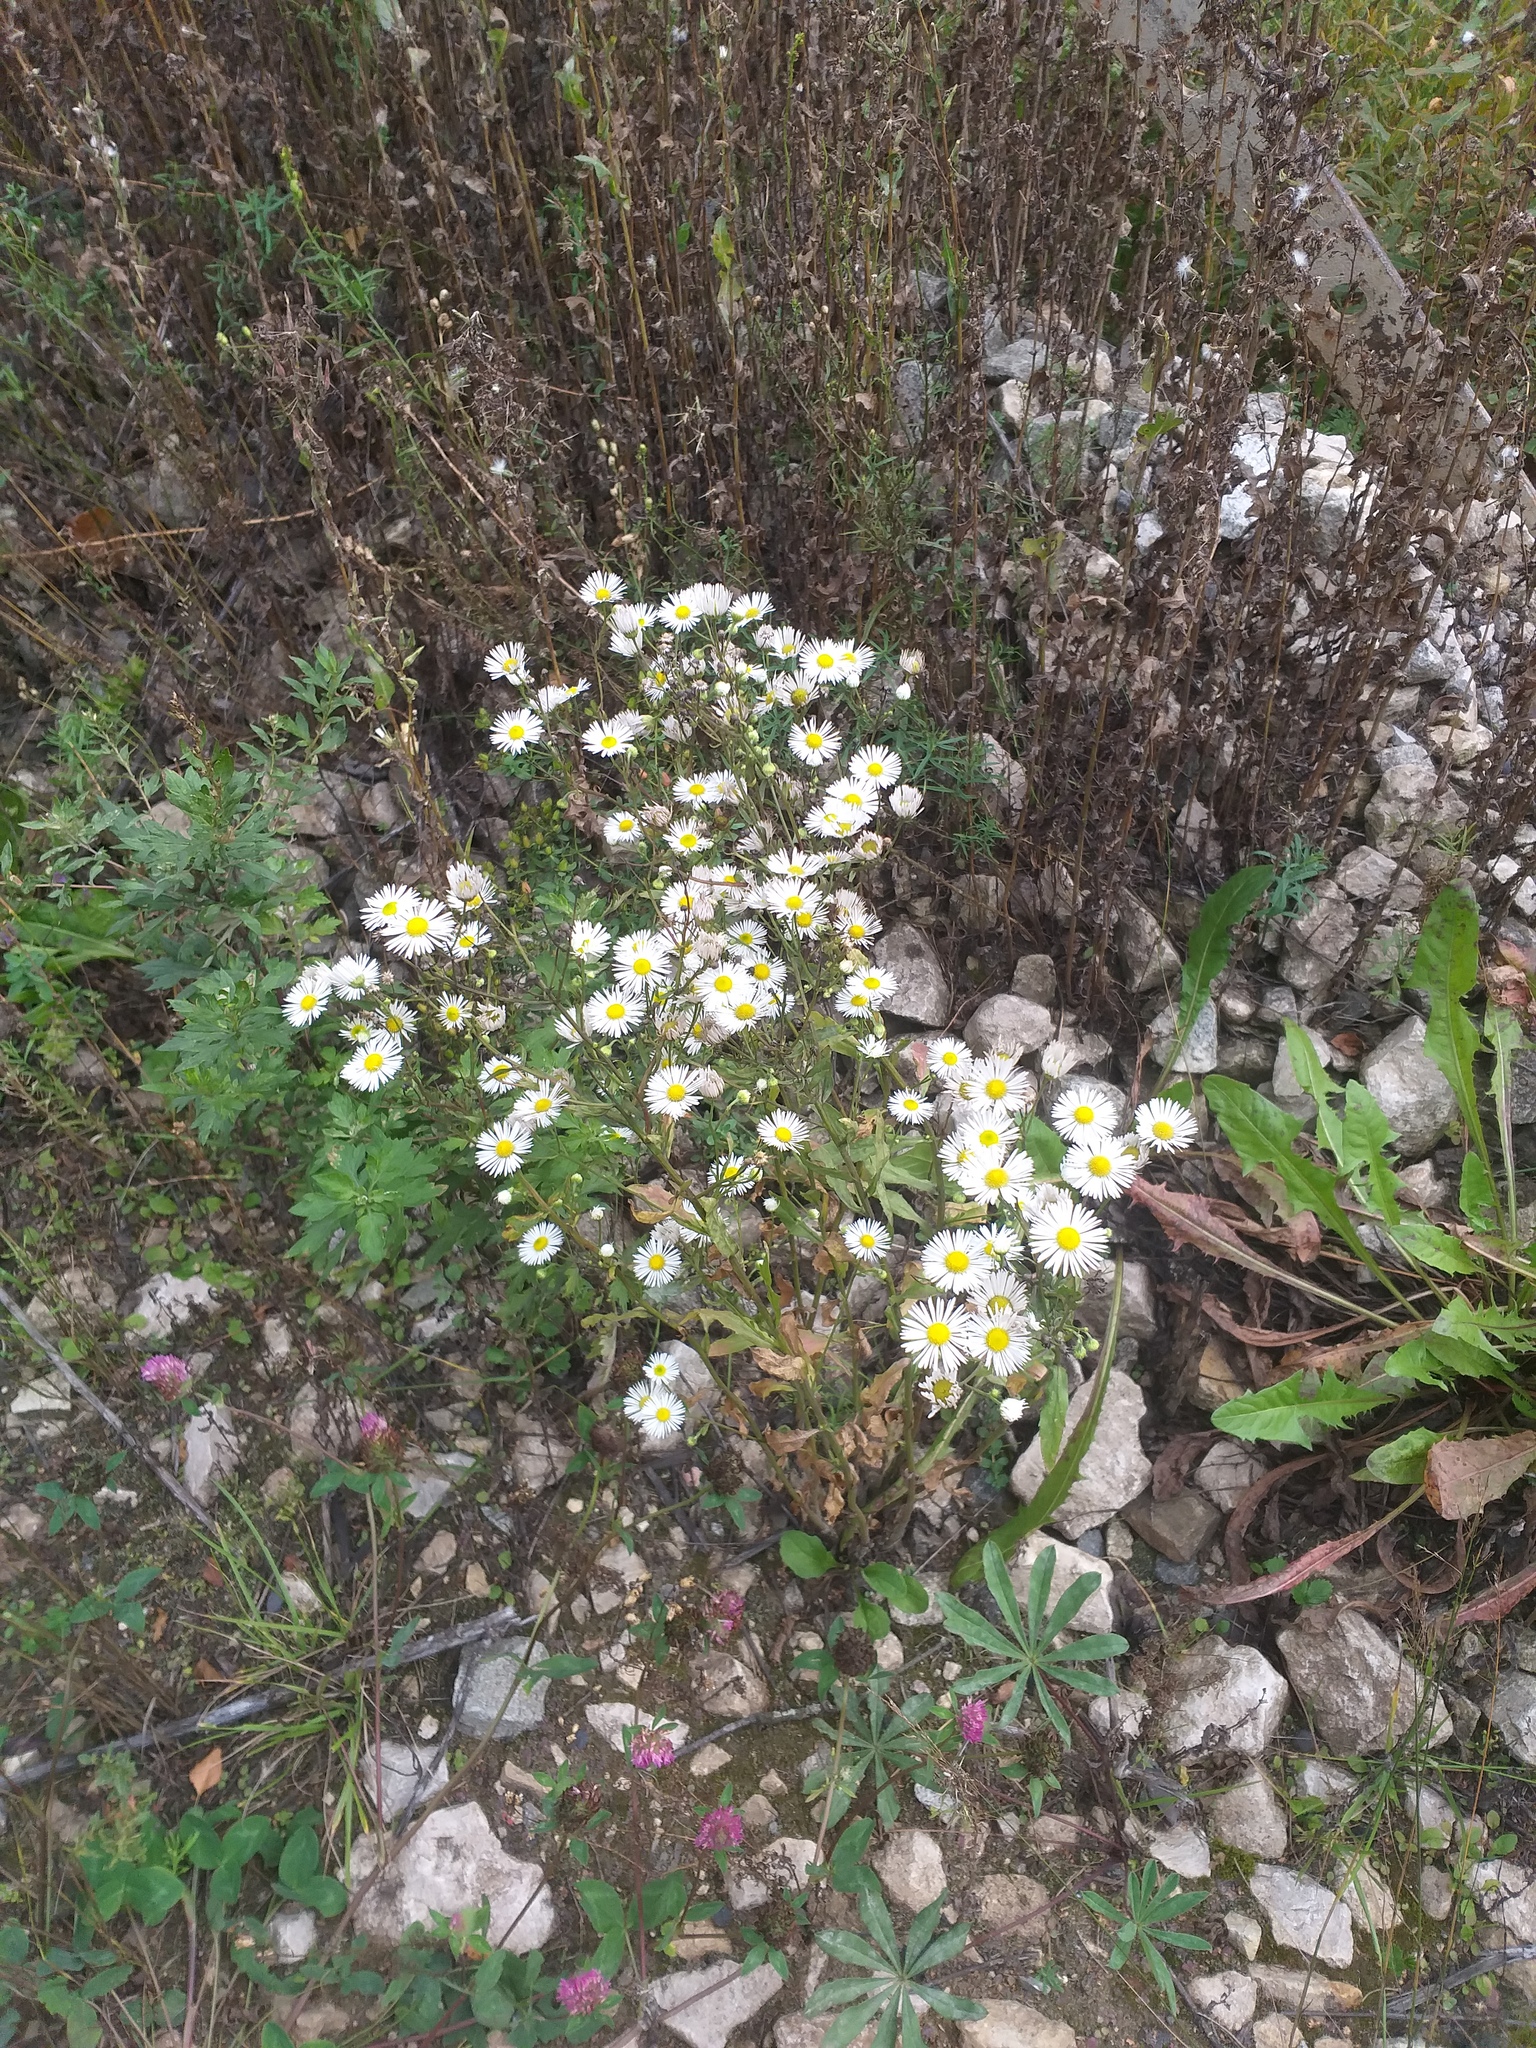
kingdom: Plantae
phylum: Tracheophyta
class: Magnoliopsida
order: Asterales
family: Asteraceae
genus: Erigeron
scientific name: Erigeron annuus
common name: Tall fleabane
